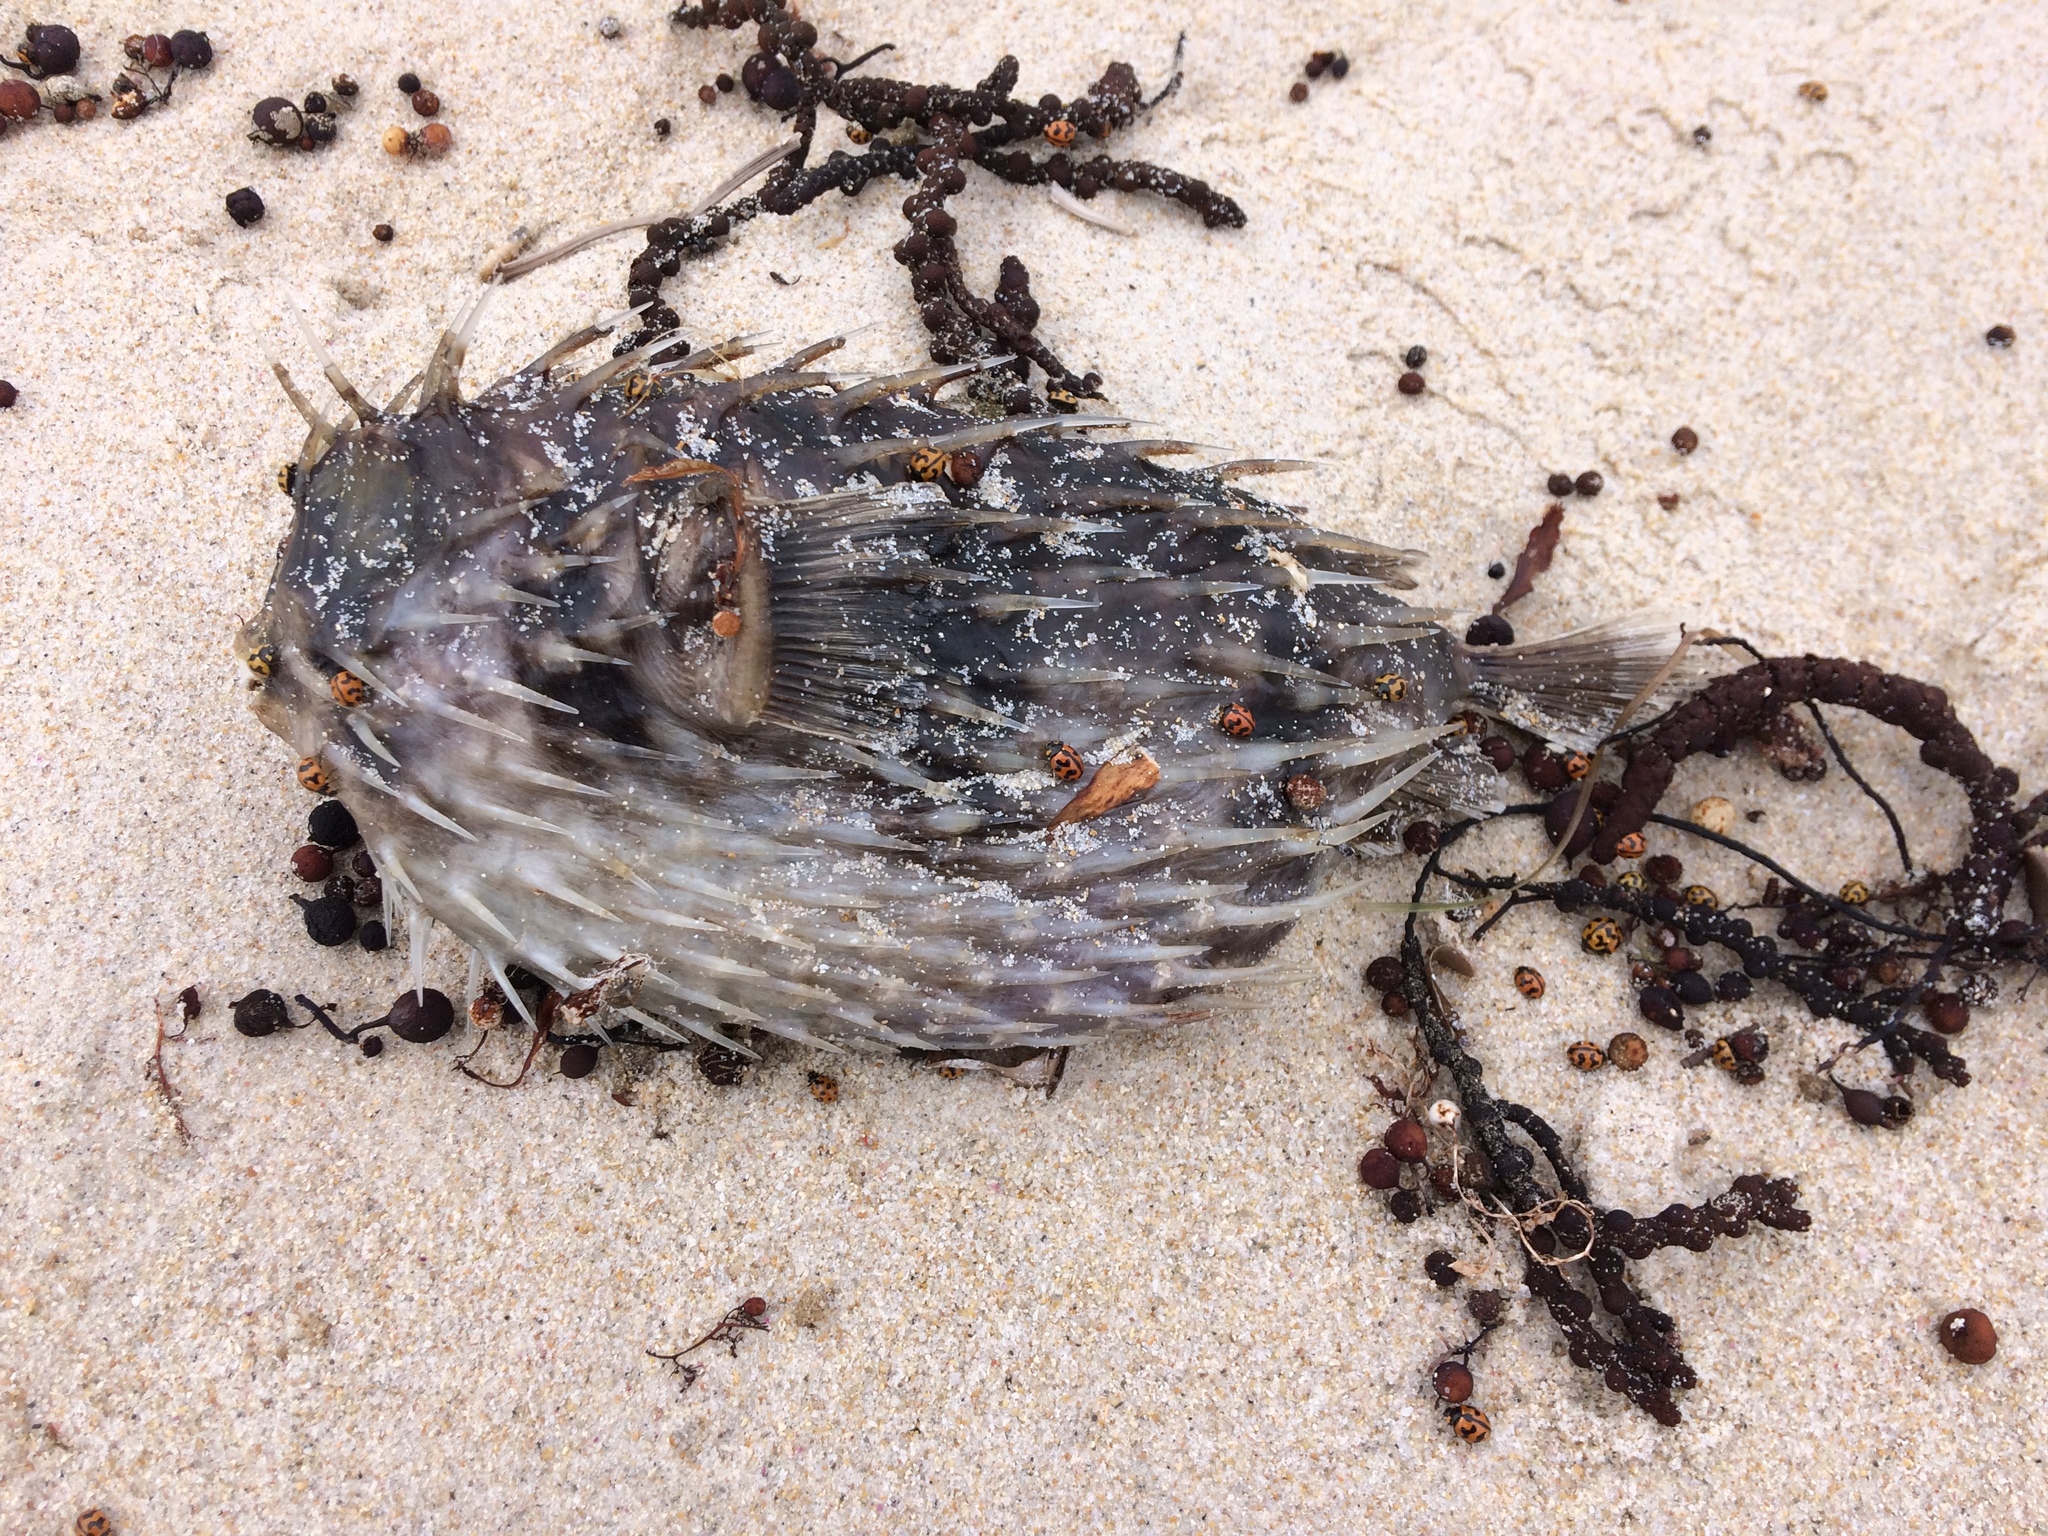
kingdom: Animalia
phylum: Chordata
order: Tetraodontiformes
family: Diodontidae
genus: Diodon
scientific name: Diodon nicthemerus
